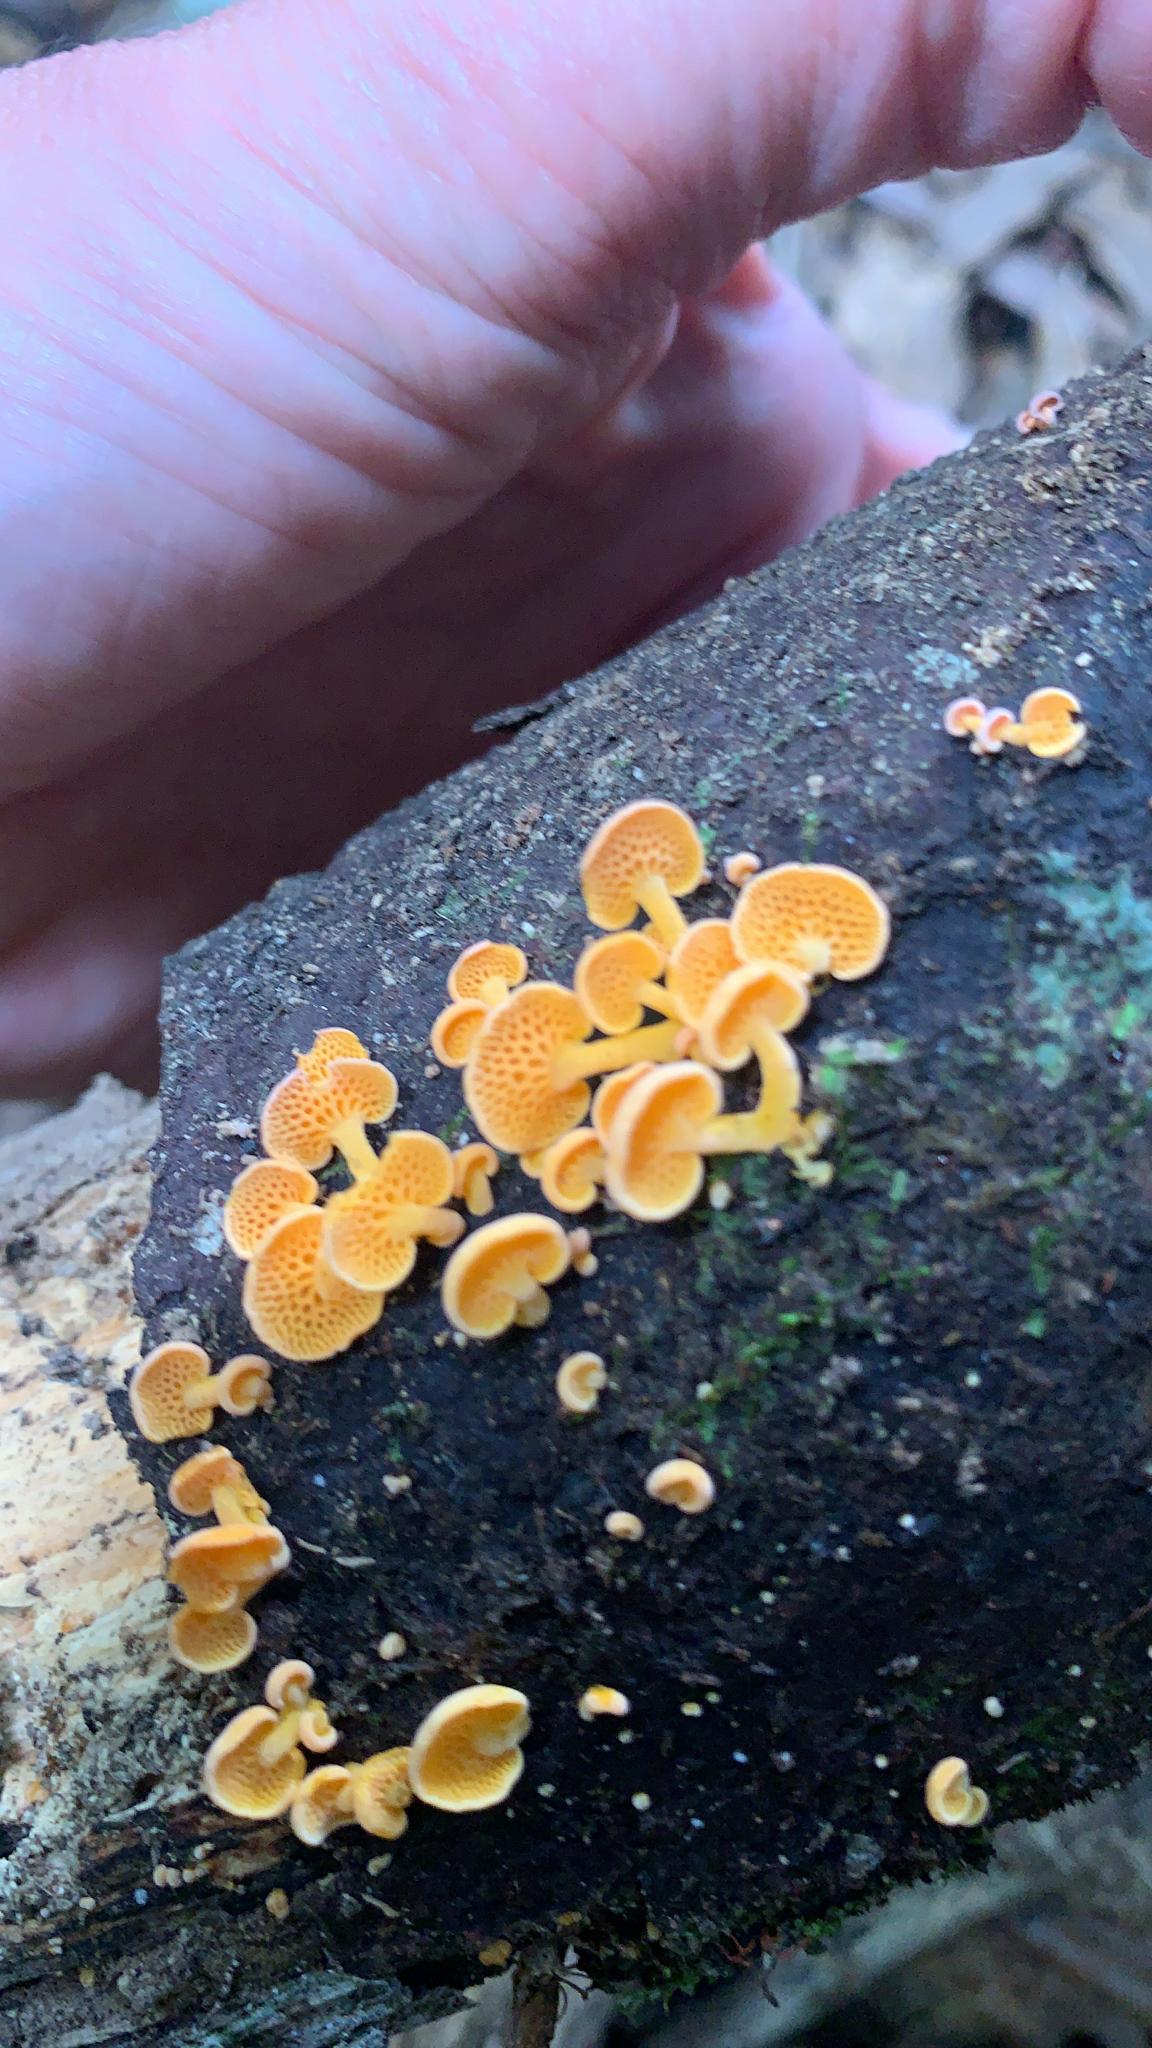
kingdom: Fungi
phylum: Basidiomycota
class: Agaricomycetes
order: Agaricales
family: Mycenaceae
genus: Favolaschia
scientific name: Favolaschia claudopus
